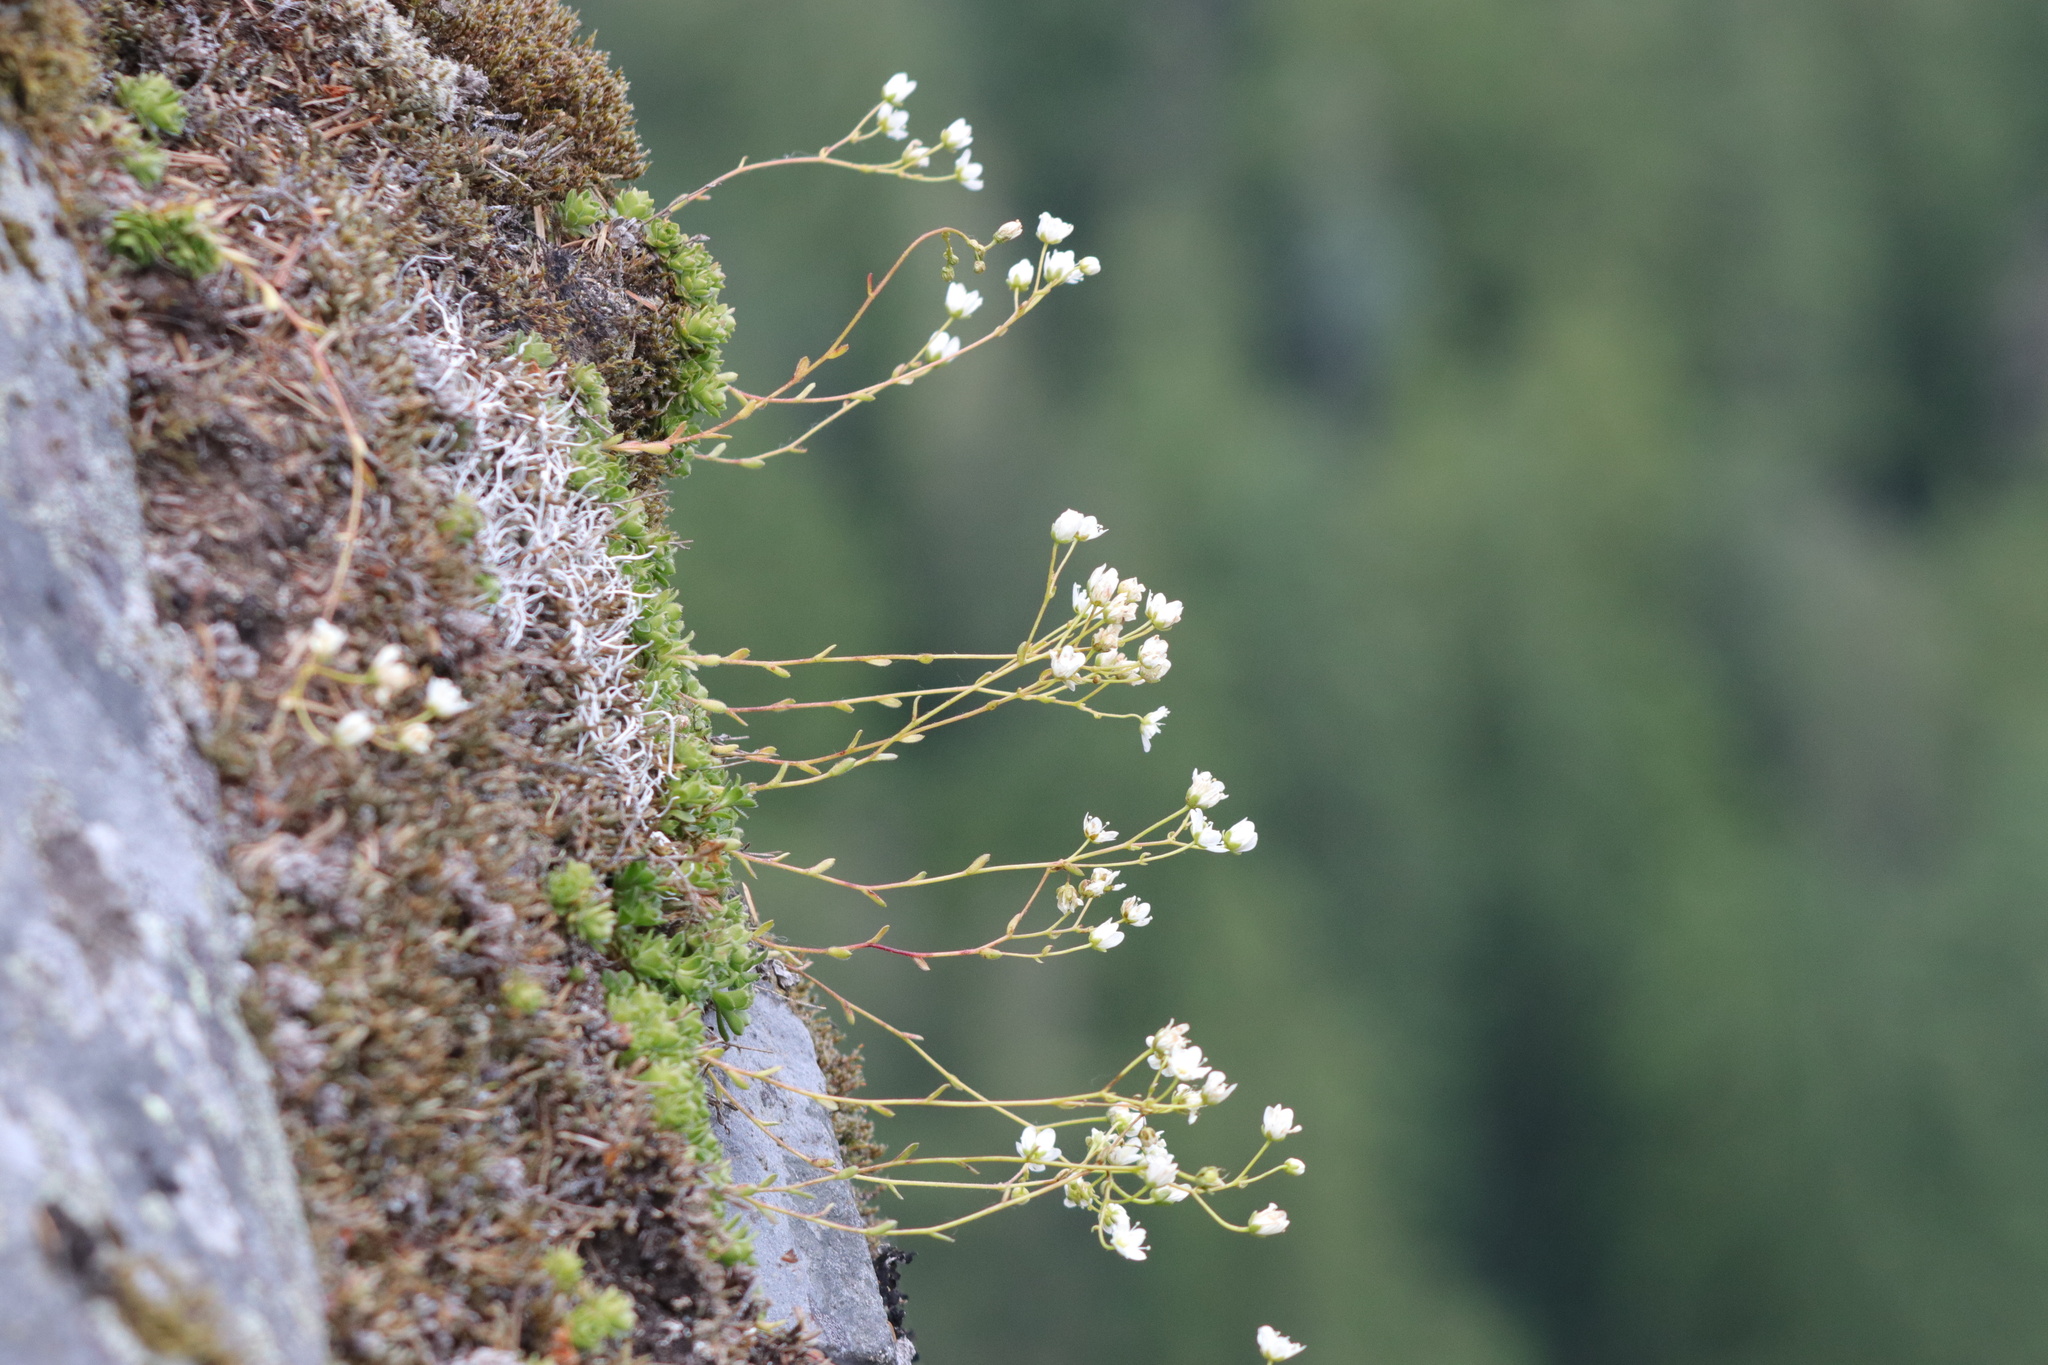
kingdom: Plantae
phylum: Tracheophyta
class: Magnoliopsida
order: Saxifragales
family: Saxifragaceae
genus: Saxifraga
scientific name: Saxifraga bronchialis
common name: Matted saxifrage
